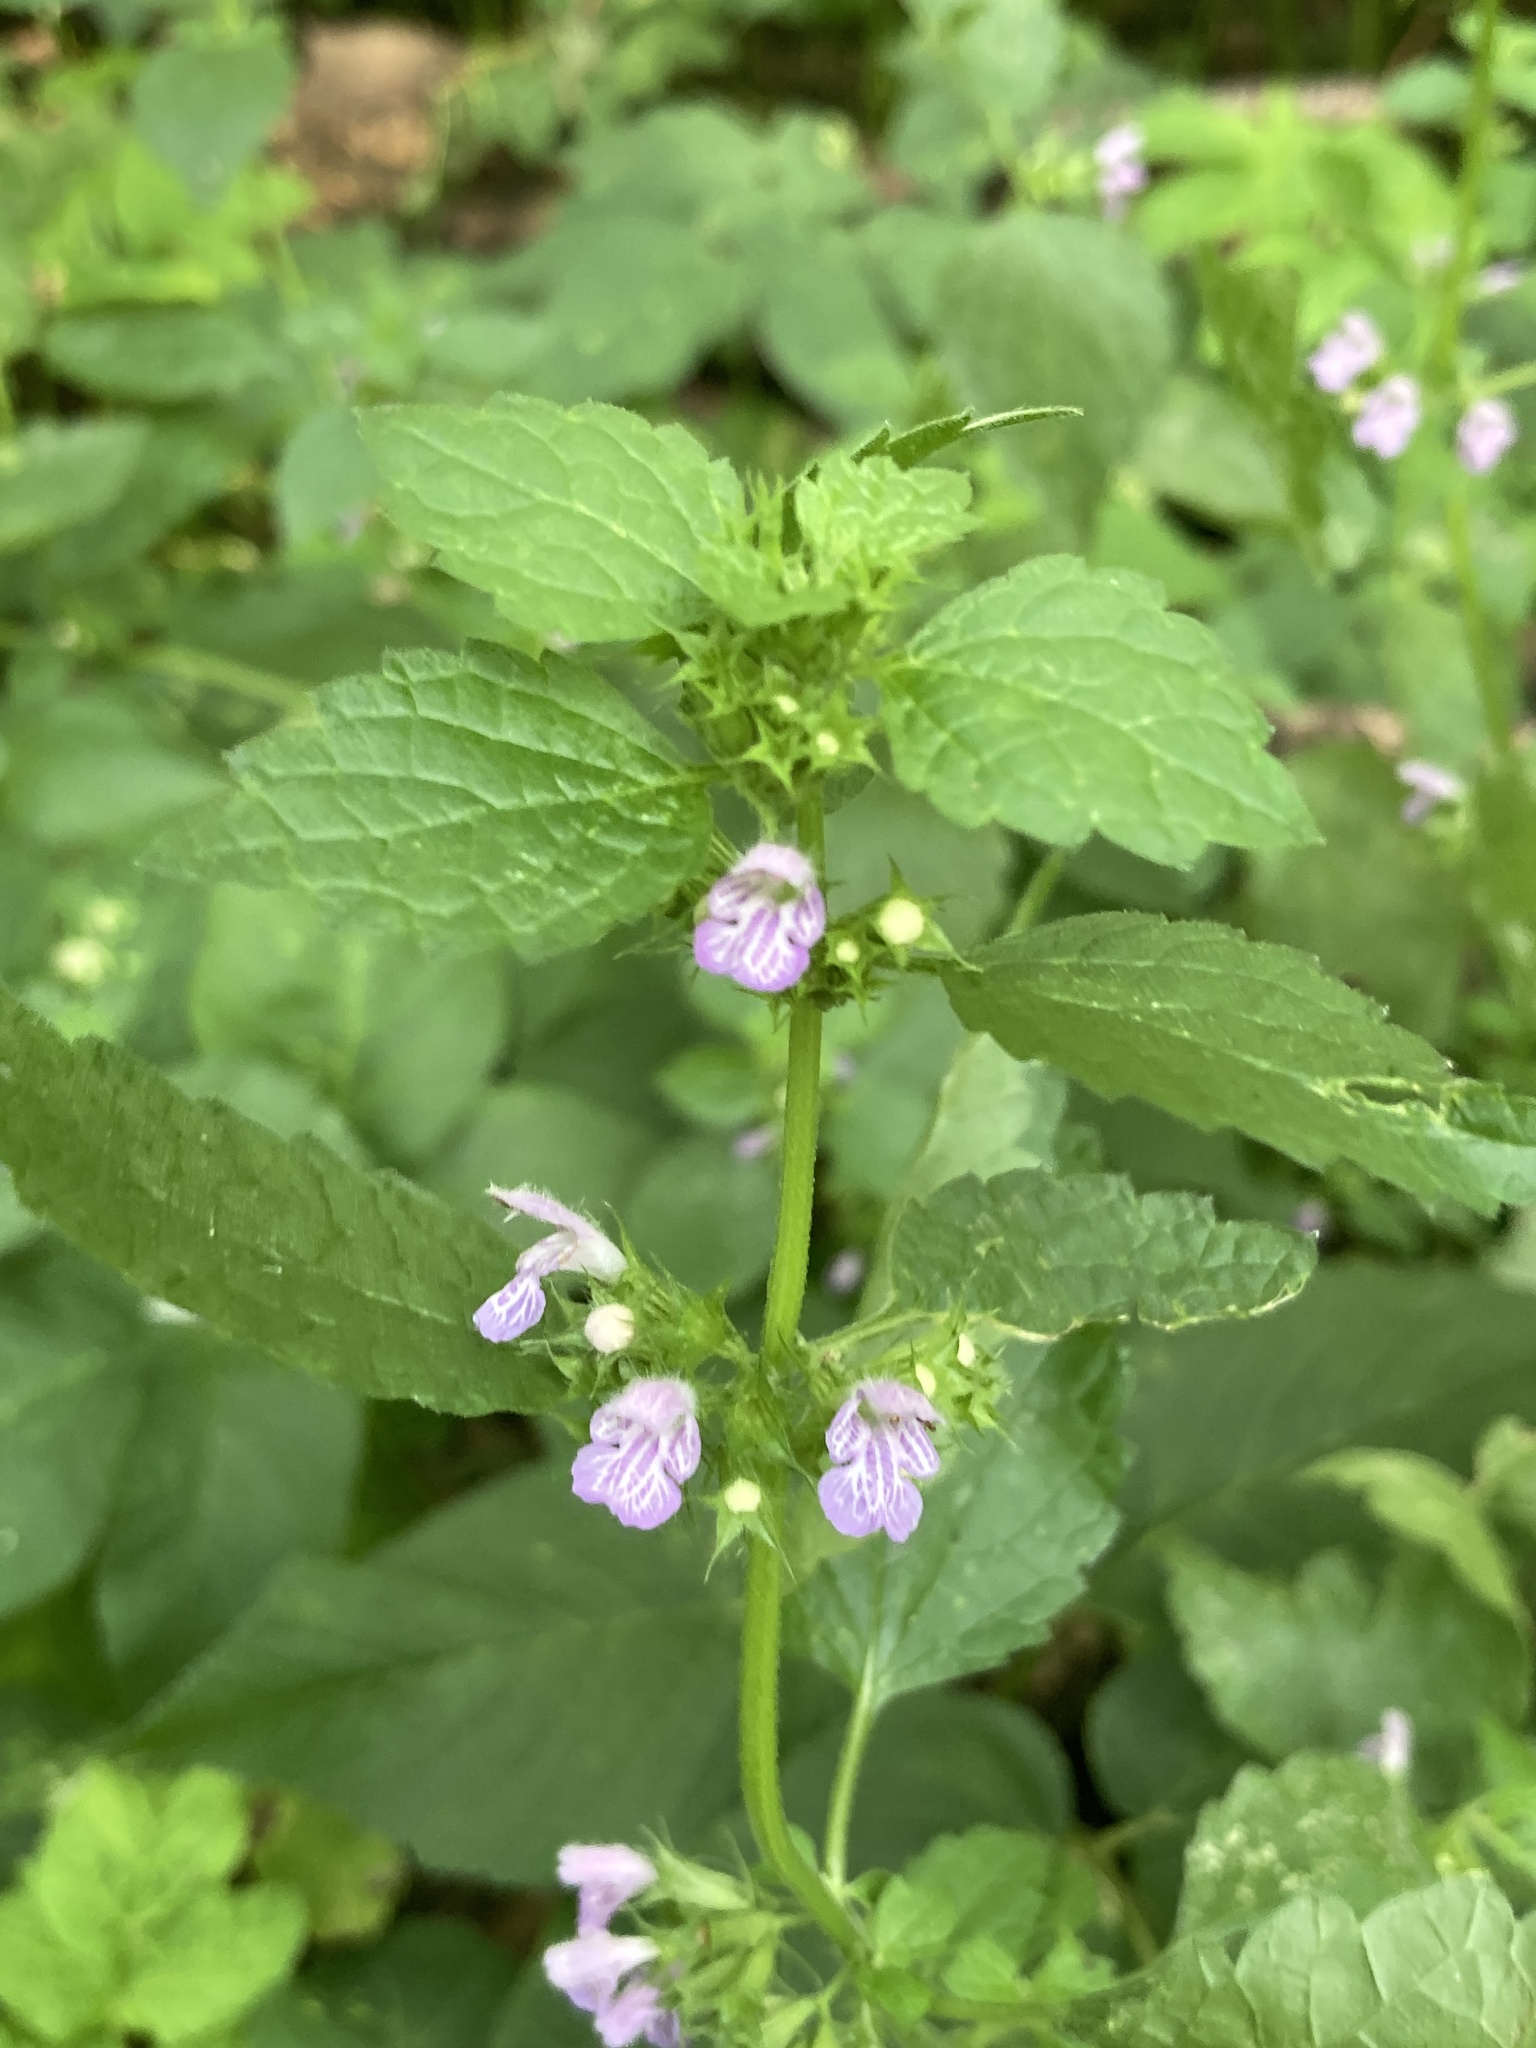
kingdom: Plantae
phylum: Tracheophyta
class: Magnoliopsida
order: Lamiales
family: Lamiaceae
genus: Ballota
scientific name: Ballota nigra
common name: Black horehound
